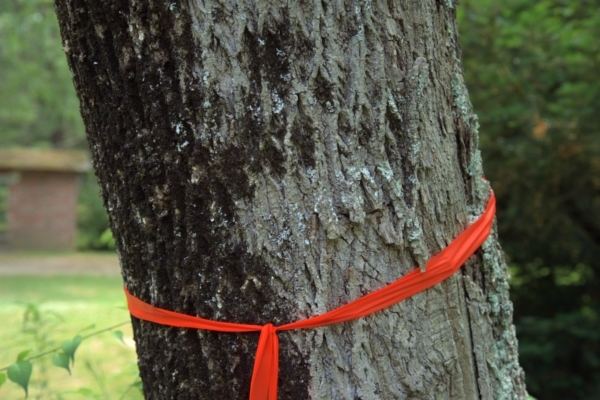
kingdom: Plantae
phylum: Tracheophyta
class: Magnoliopsida
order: Lamiales
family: Oleaceae
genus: Fraxinus
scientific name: Fraxinus americana
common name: White ash
